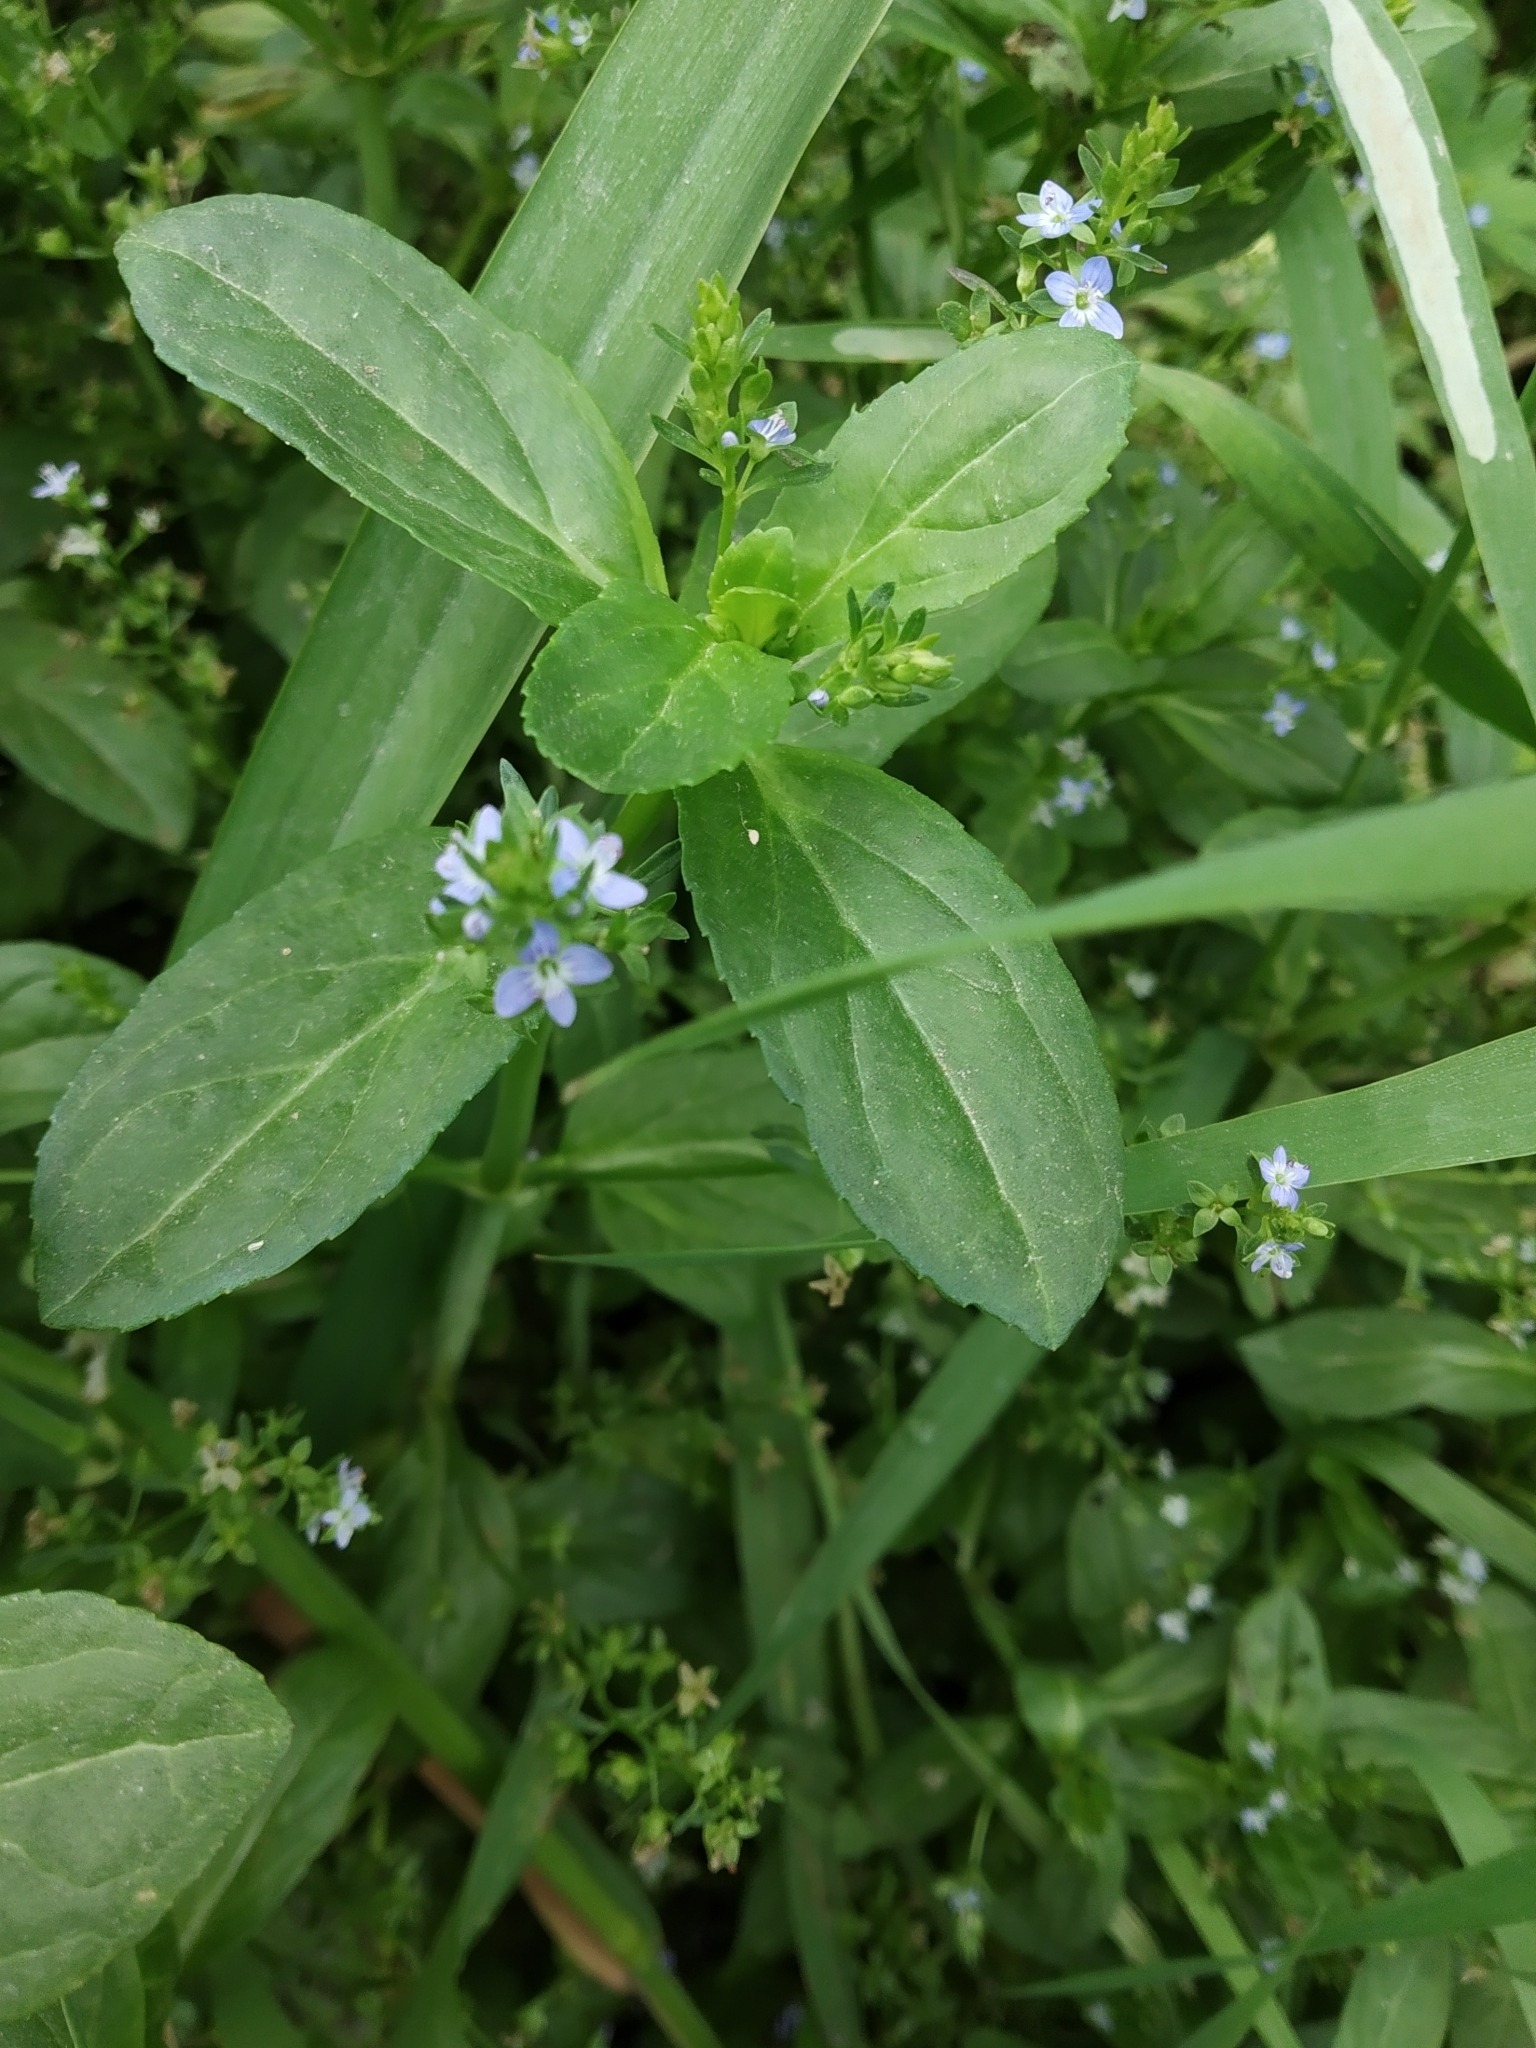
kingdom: Plantae
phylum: Tracheophyta
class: Magnoliopsida
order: Lamiales
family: Plantaginaceae
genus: Veronica
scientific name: Veronica beccabunga
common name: Brooklime
